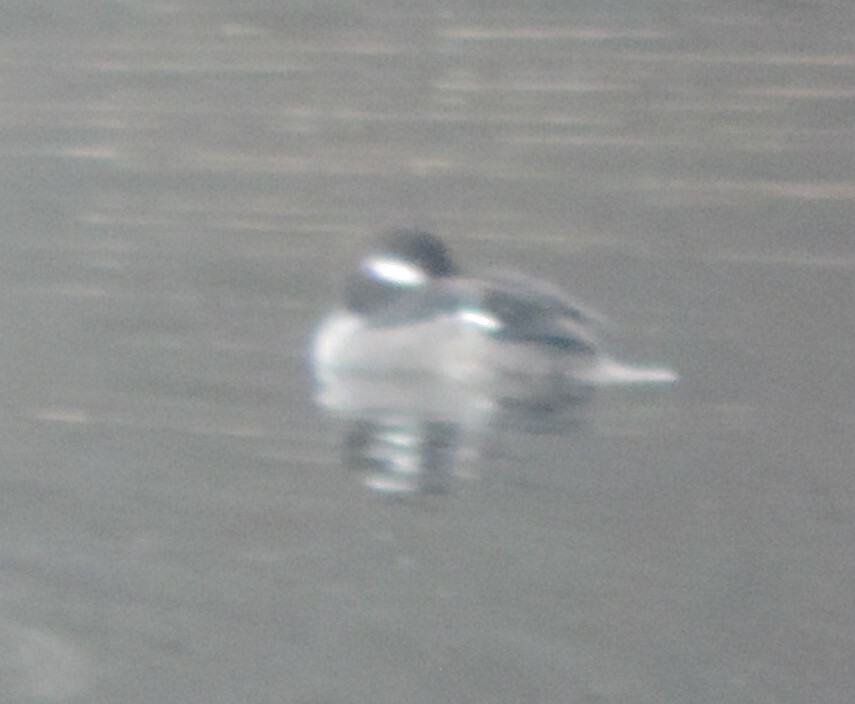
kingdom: Animalia
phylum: Chordata
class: Aves
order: Anseriformes
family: Anatidae
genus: Bucephala
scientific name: Bucephala albeola
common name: Bufflehead
